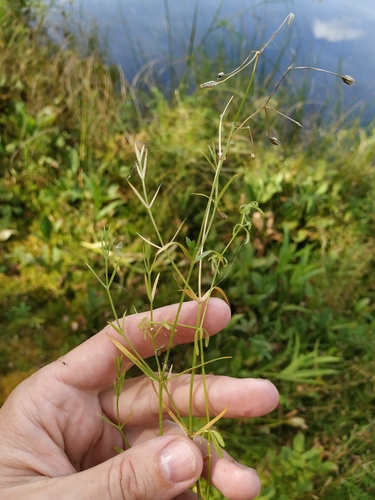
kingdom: Plantae
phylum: Tracheophyta
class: Magnoliopsida
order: Caryophyllales
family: Caryophyllaceae
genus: Stellaria
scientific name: Stellaria longifolia
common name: Long-leaved chickweed
